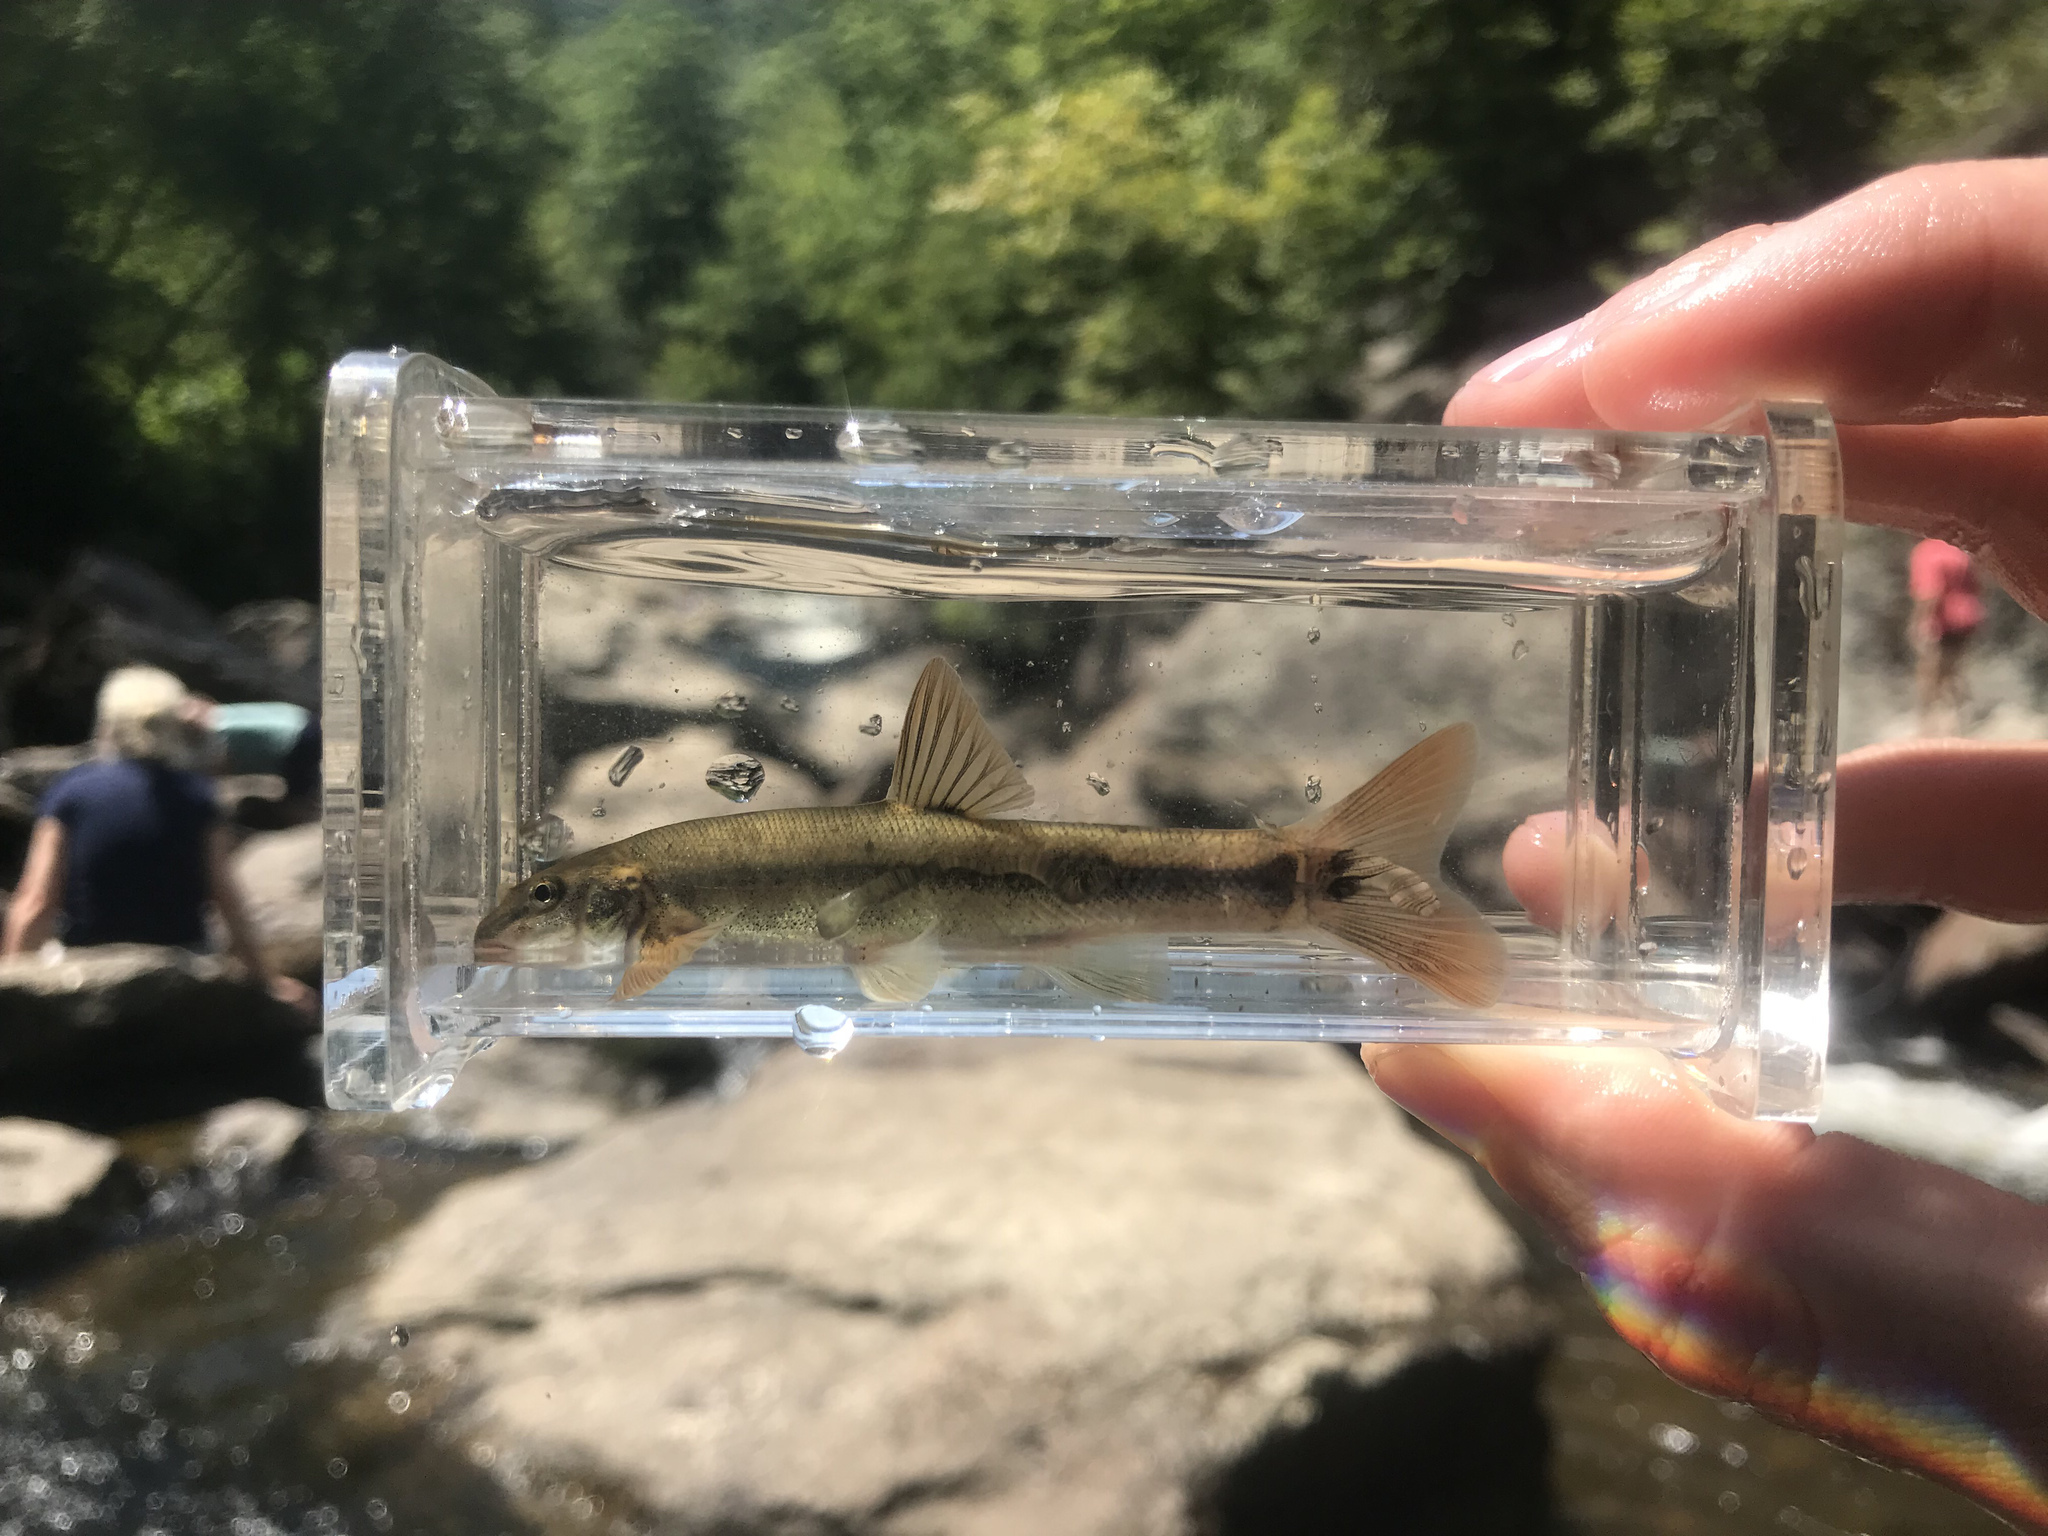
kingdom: Animalia
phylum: Chordata
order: Cypriniformes
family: Cyprinidae
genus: Rhinichthys
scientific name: Rhinichthys cataractae
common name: Longnose dace
